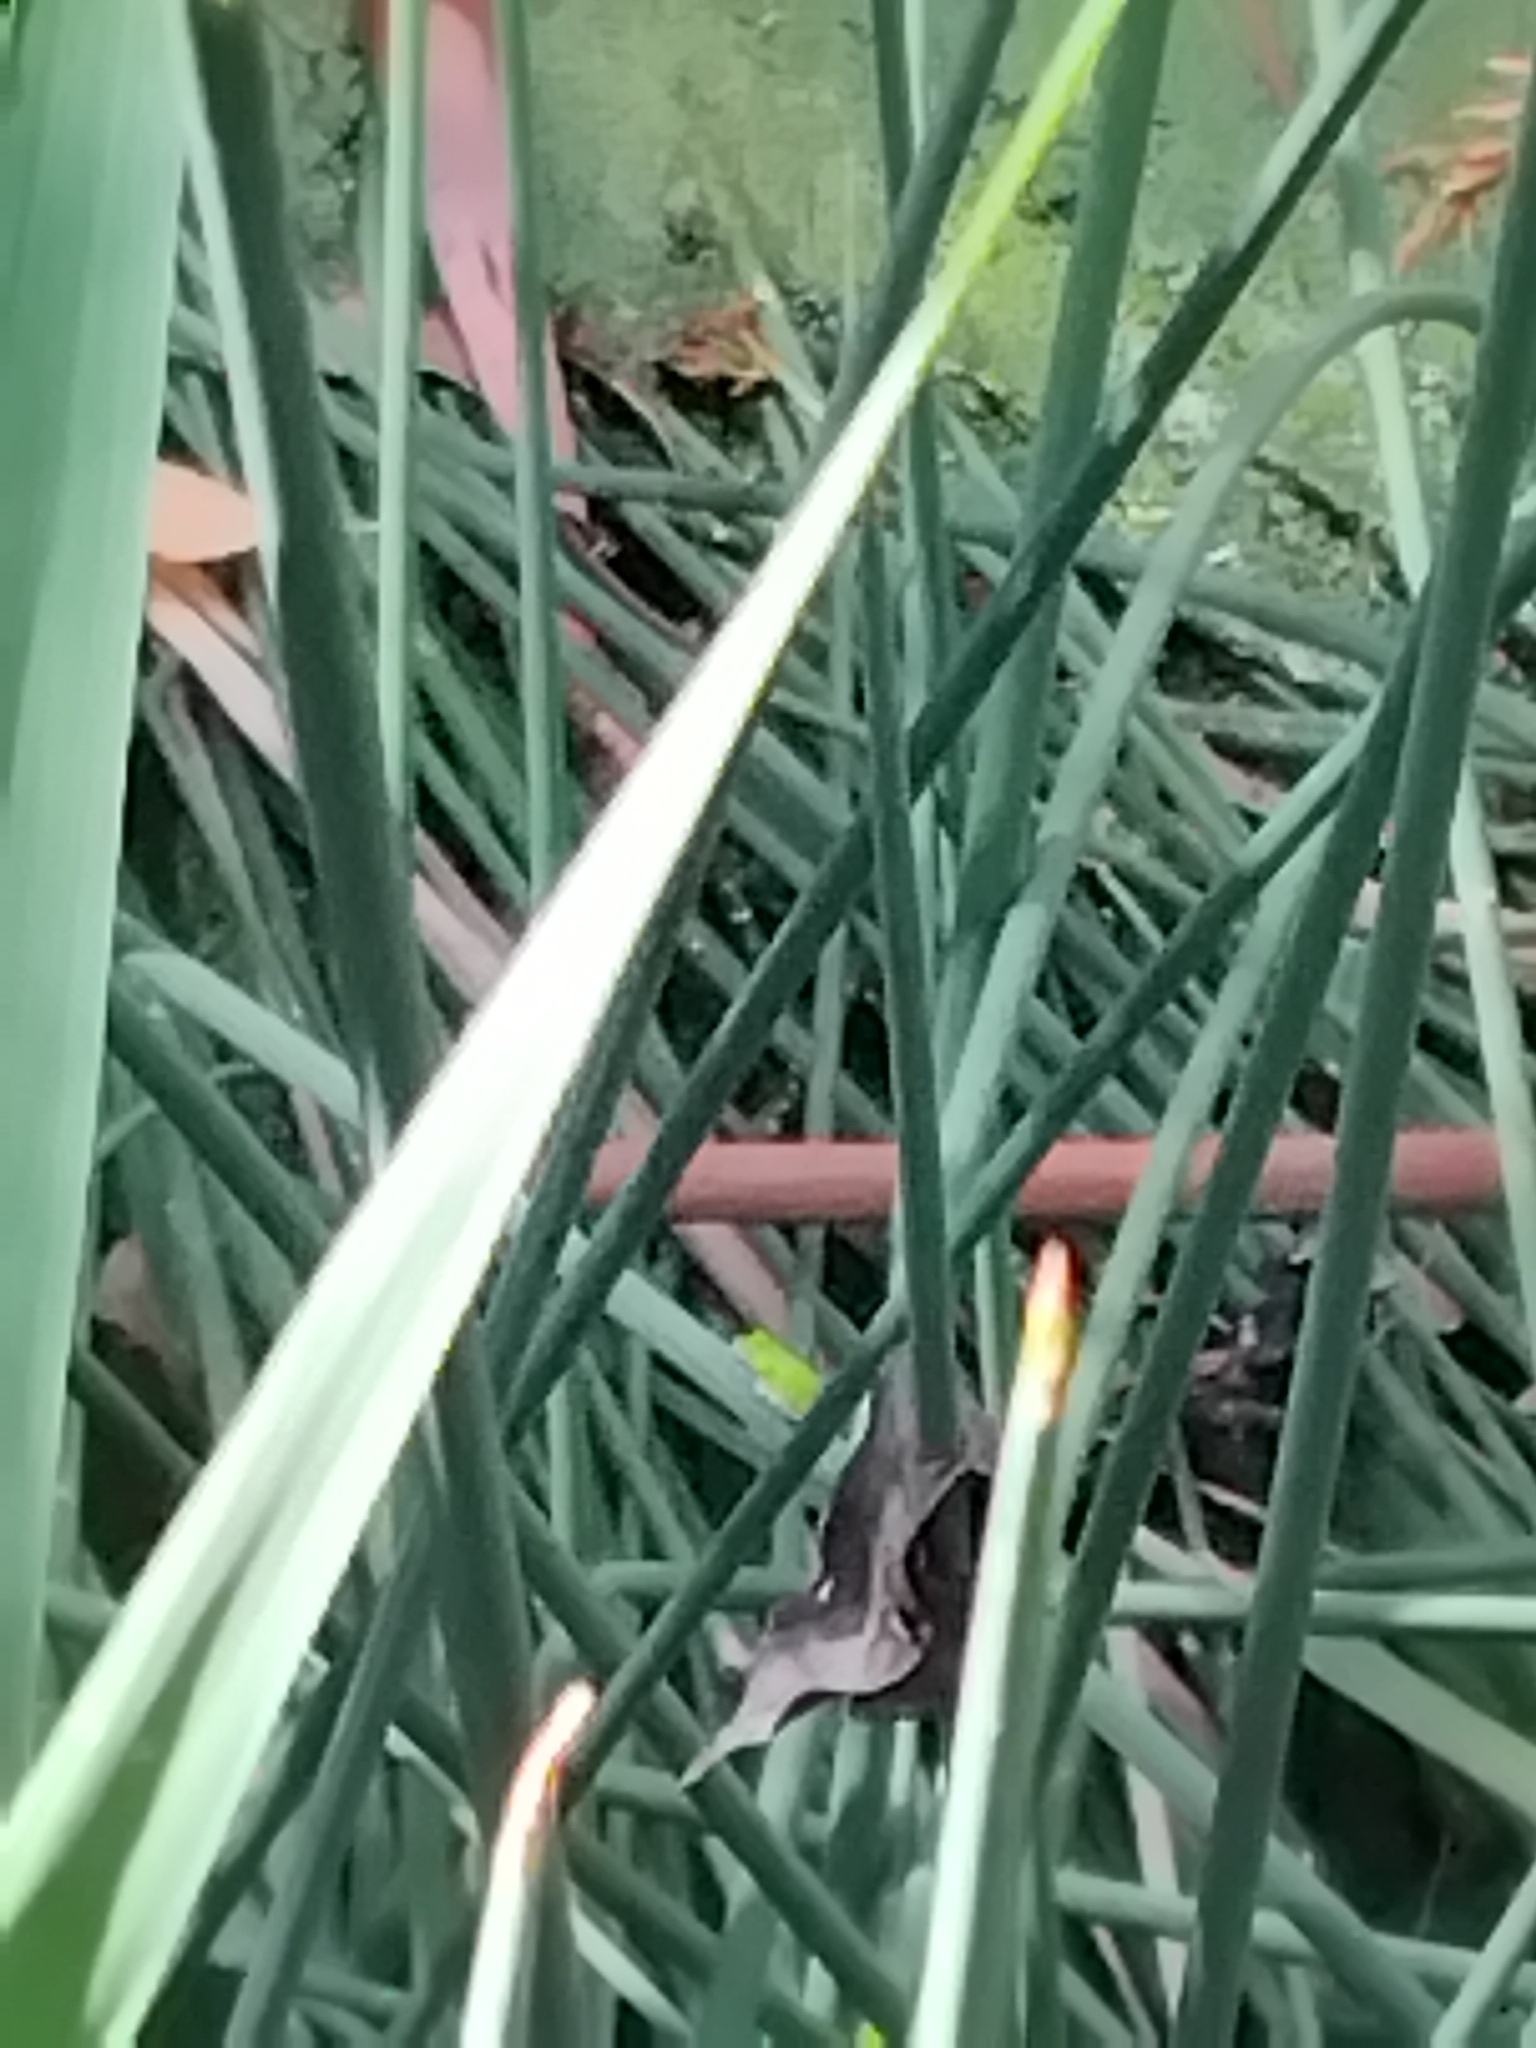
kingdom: Animalia
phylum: Chordata
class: Amphibia
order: Anura
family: Pelodryadidae
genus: Litoria
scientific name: Litoria fallax
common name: Eastern dwarf treefrog
